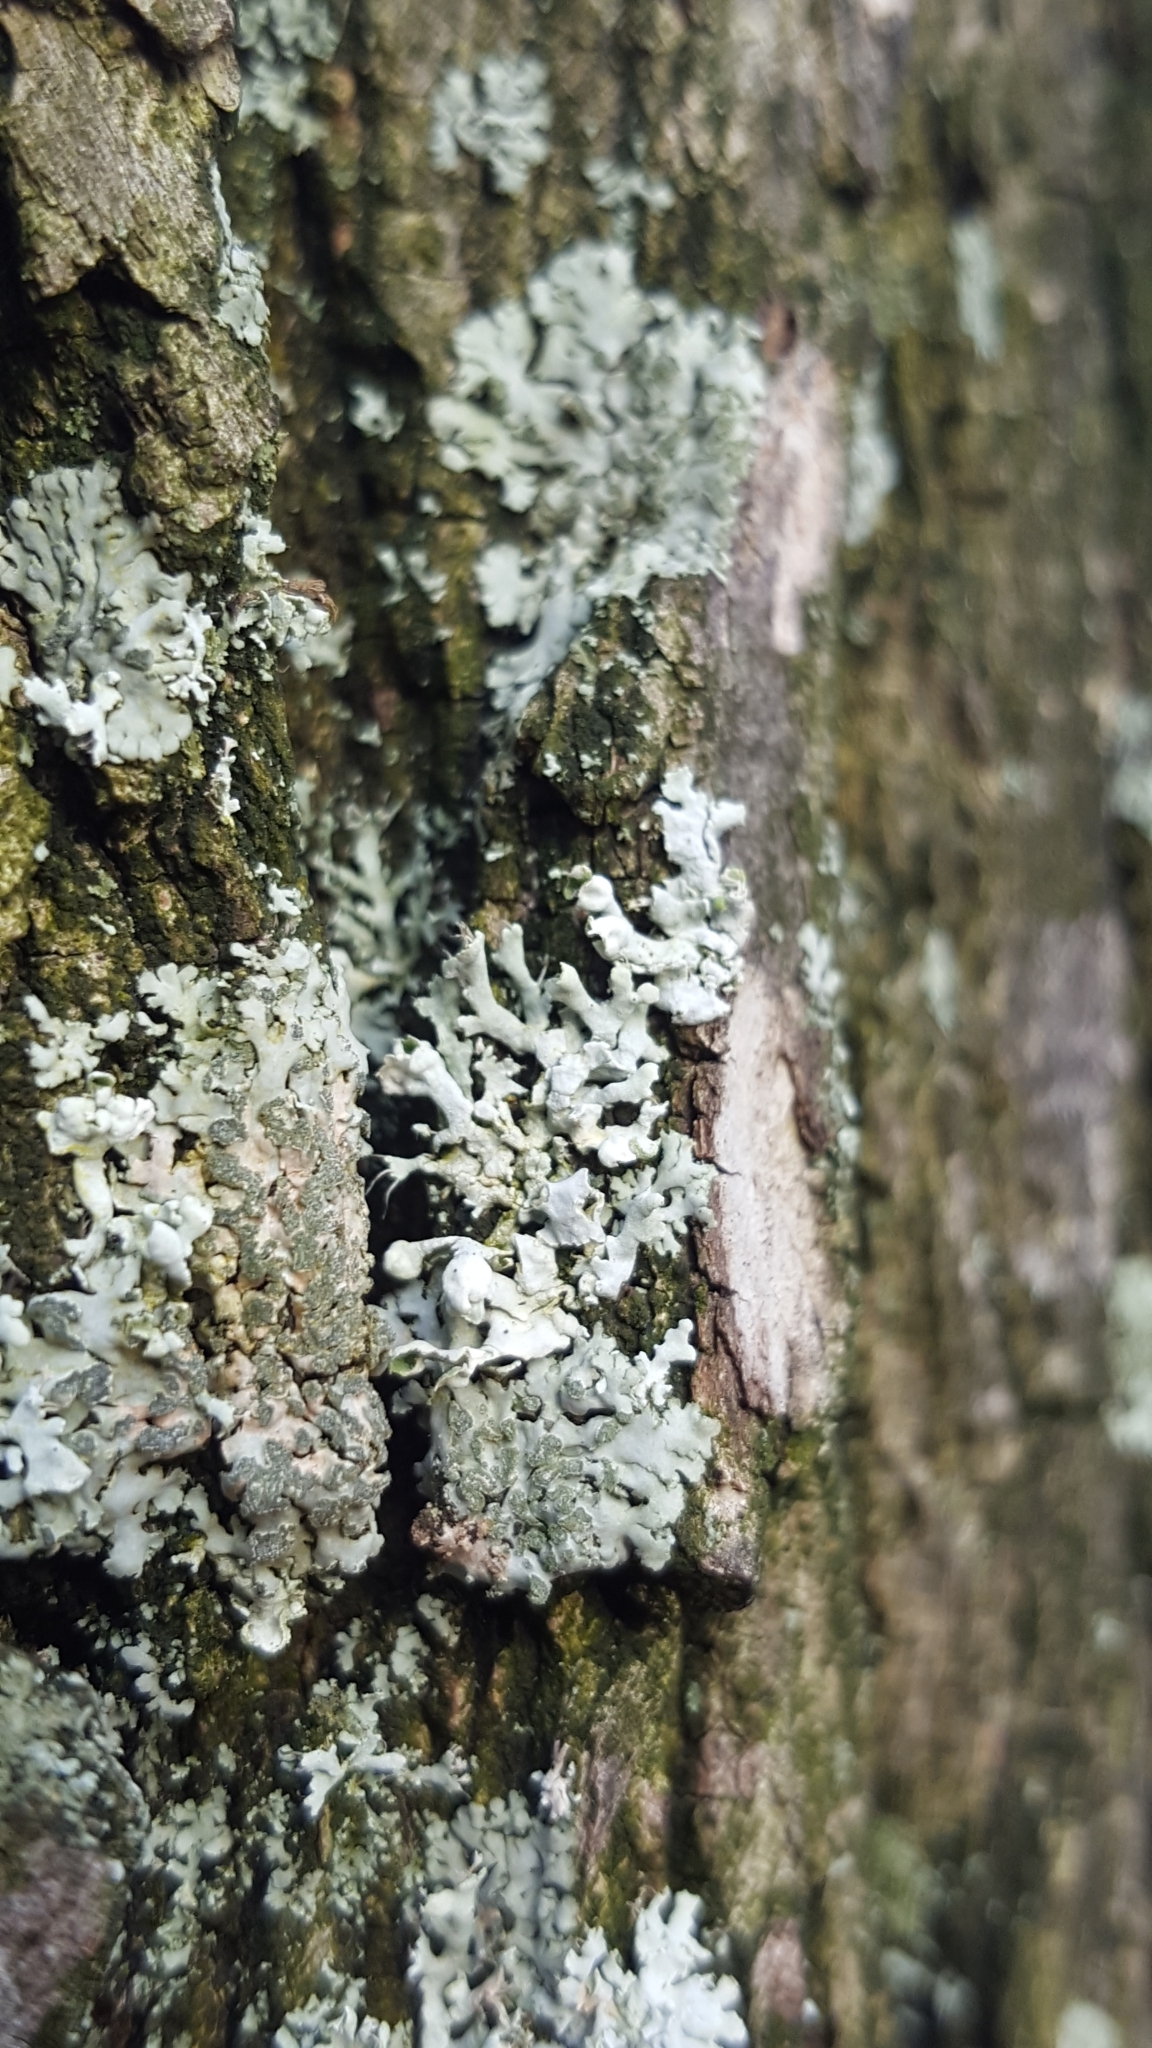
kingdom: Fungi
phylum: Ascomycota
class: Lecanoromycetes
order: Caliciales
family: Physciaceae
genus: Physcia
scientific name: Physcia adscendens
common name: Hooded rosette lichen
